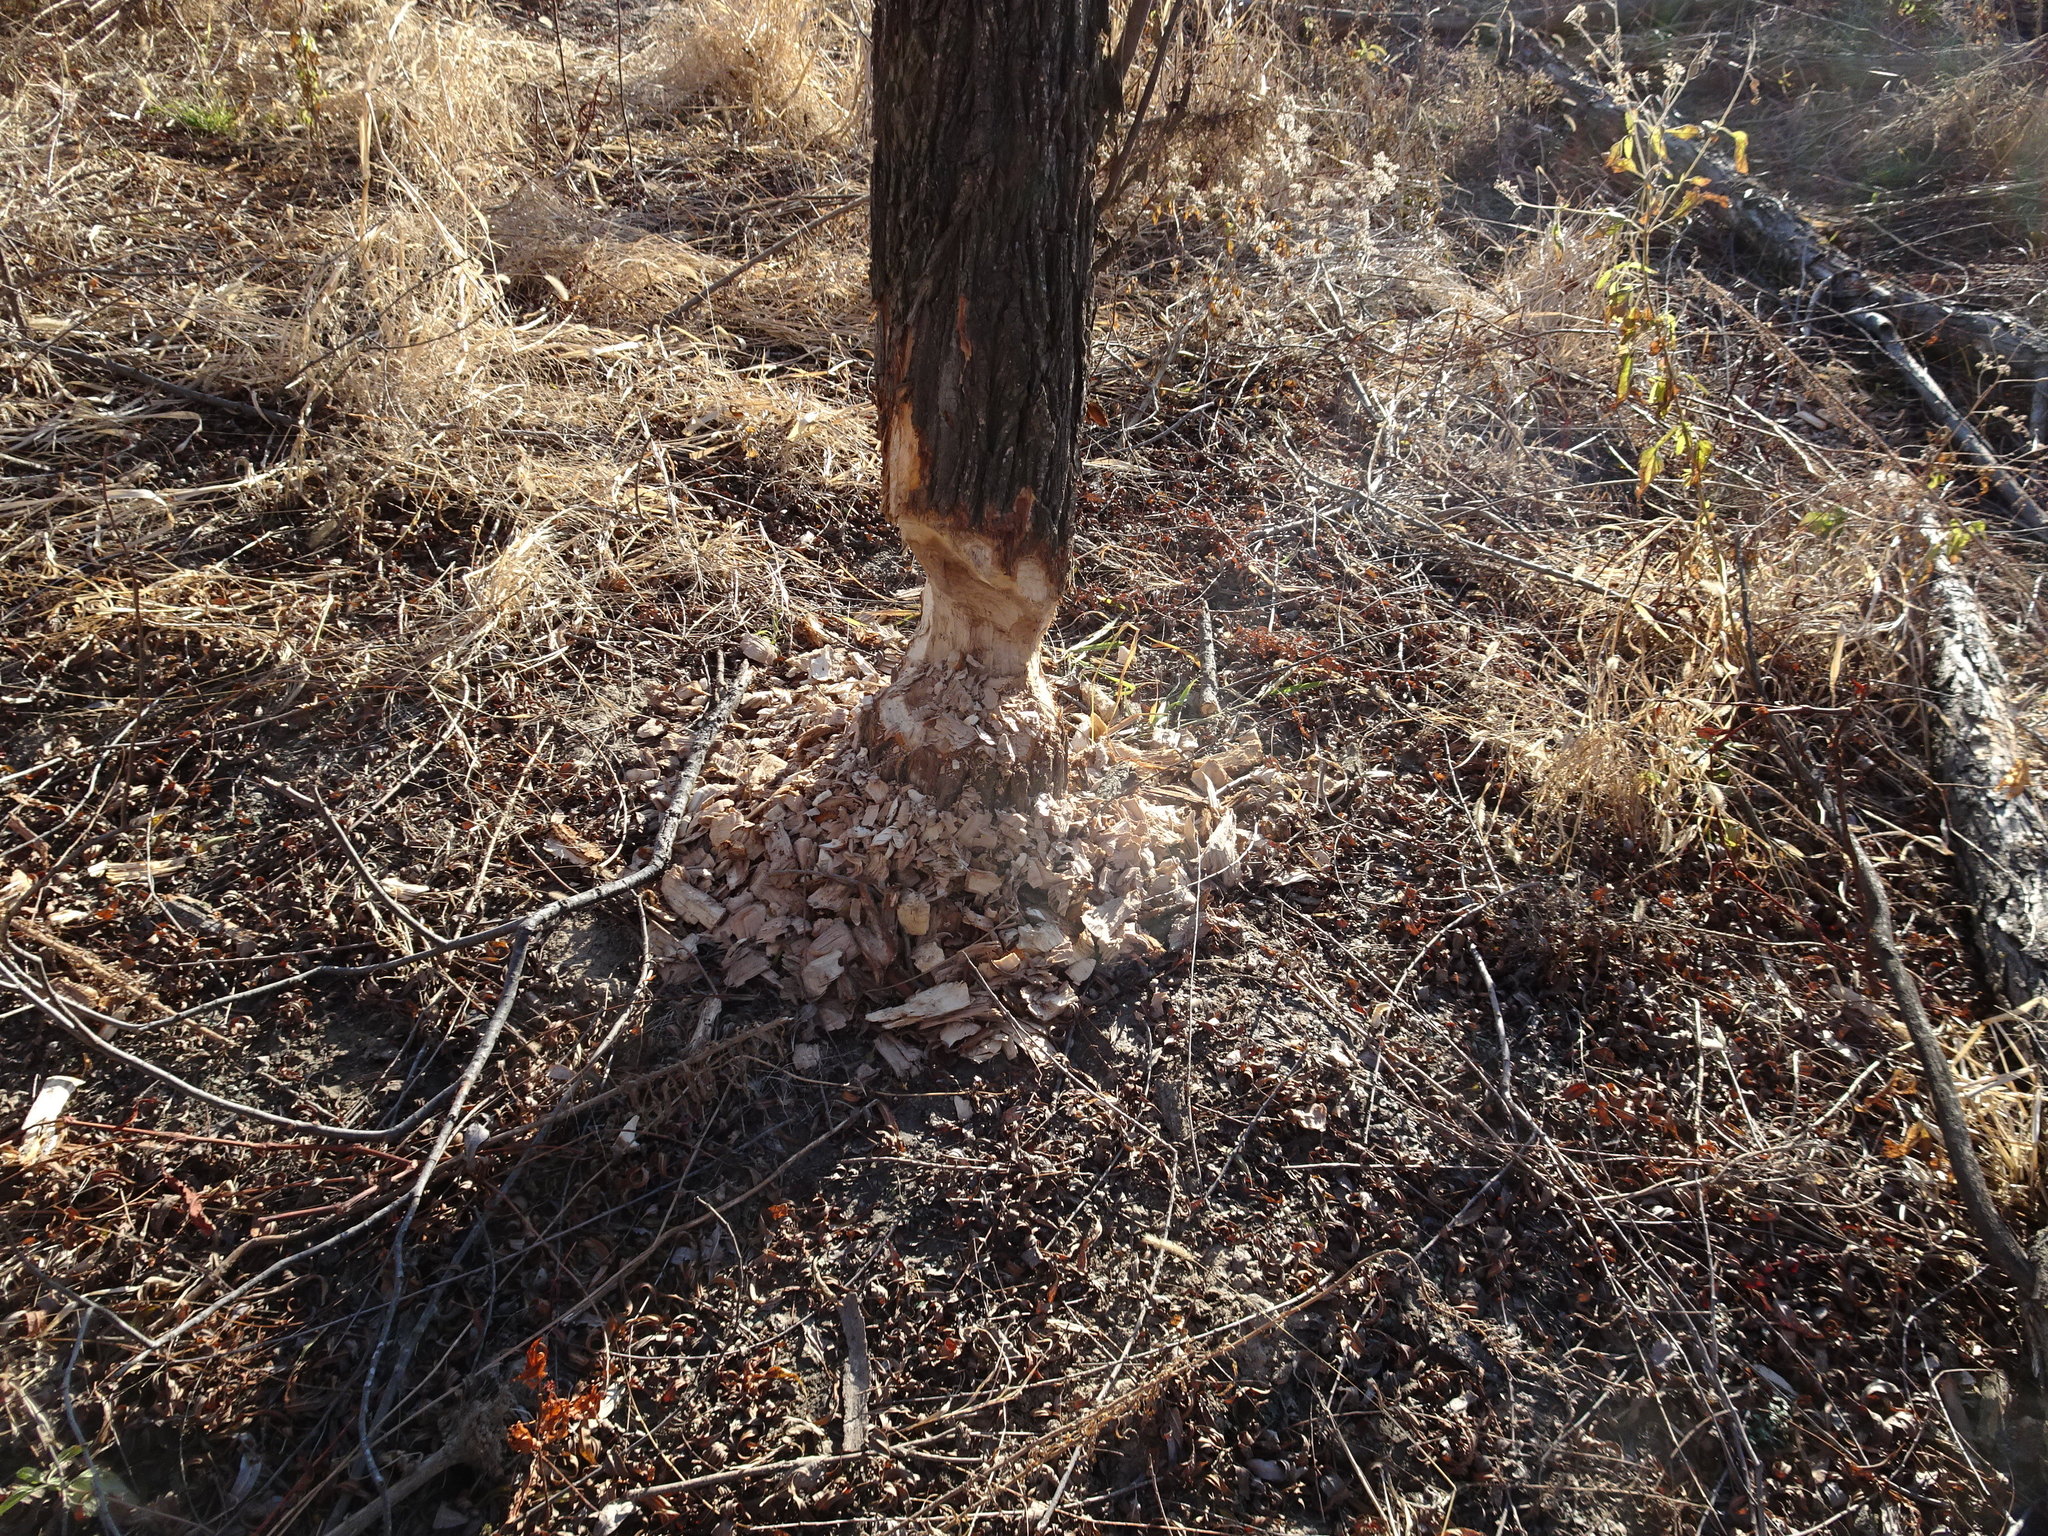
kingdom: Animalia
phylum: Chordata
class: Mammalia
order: Rodentia
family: Castoridae
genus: Castor
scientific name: Castor canadensis
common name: American beaver
